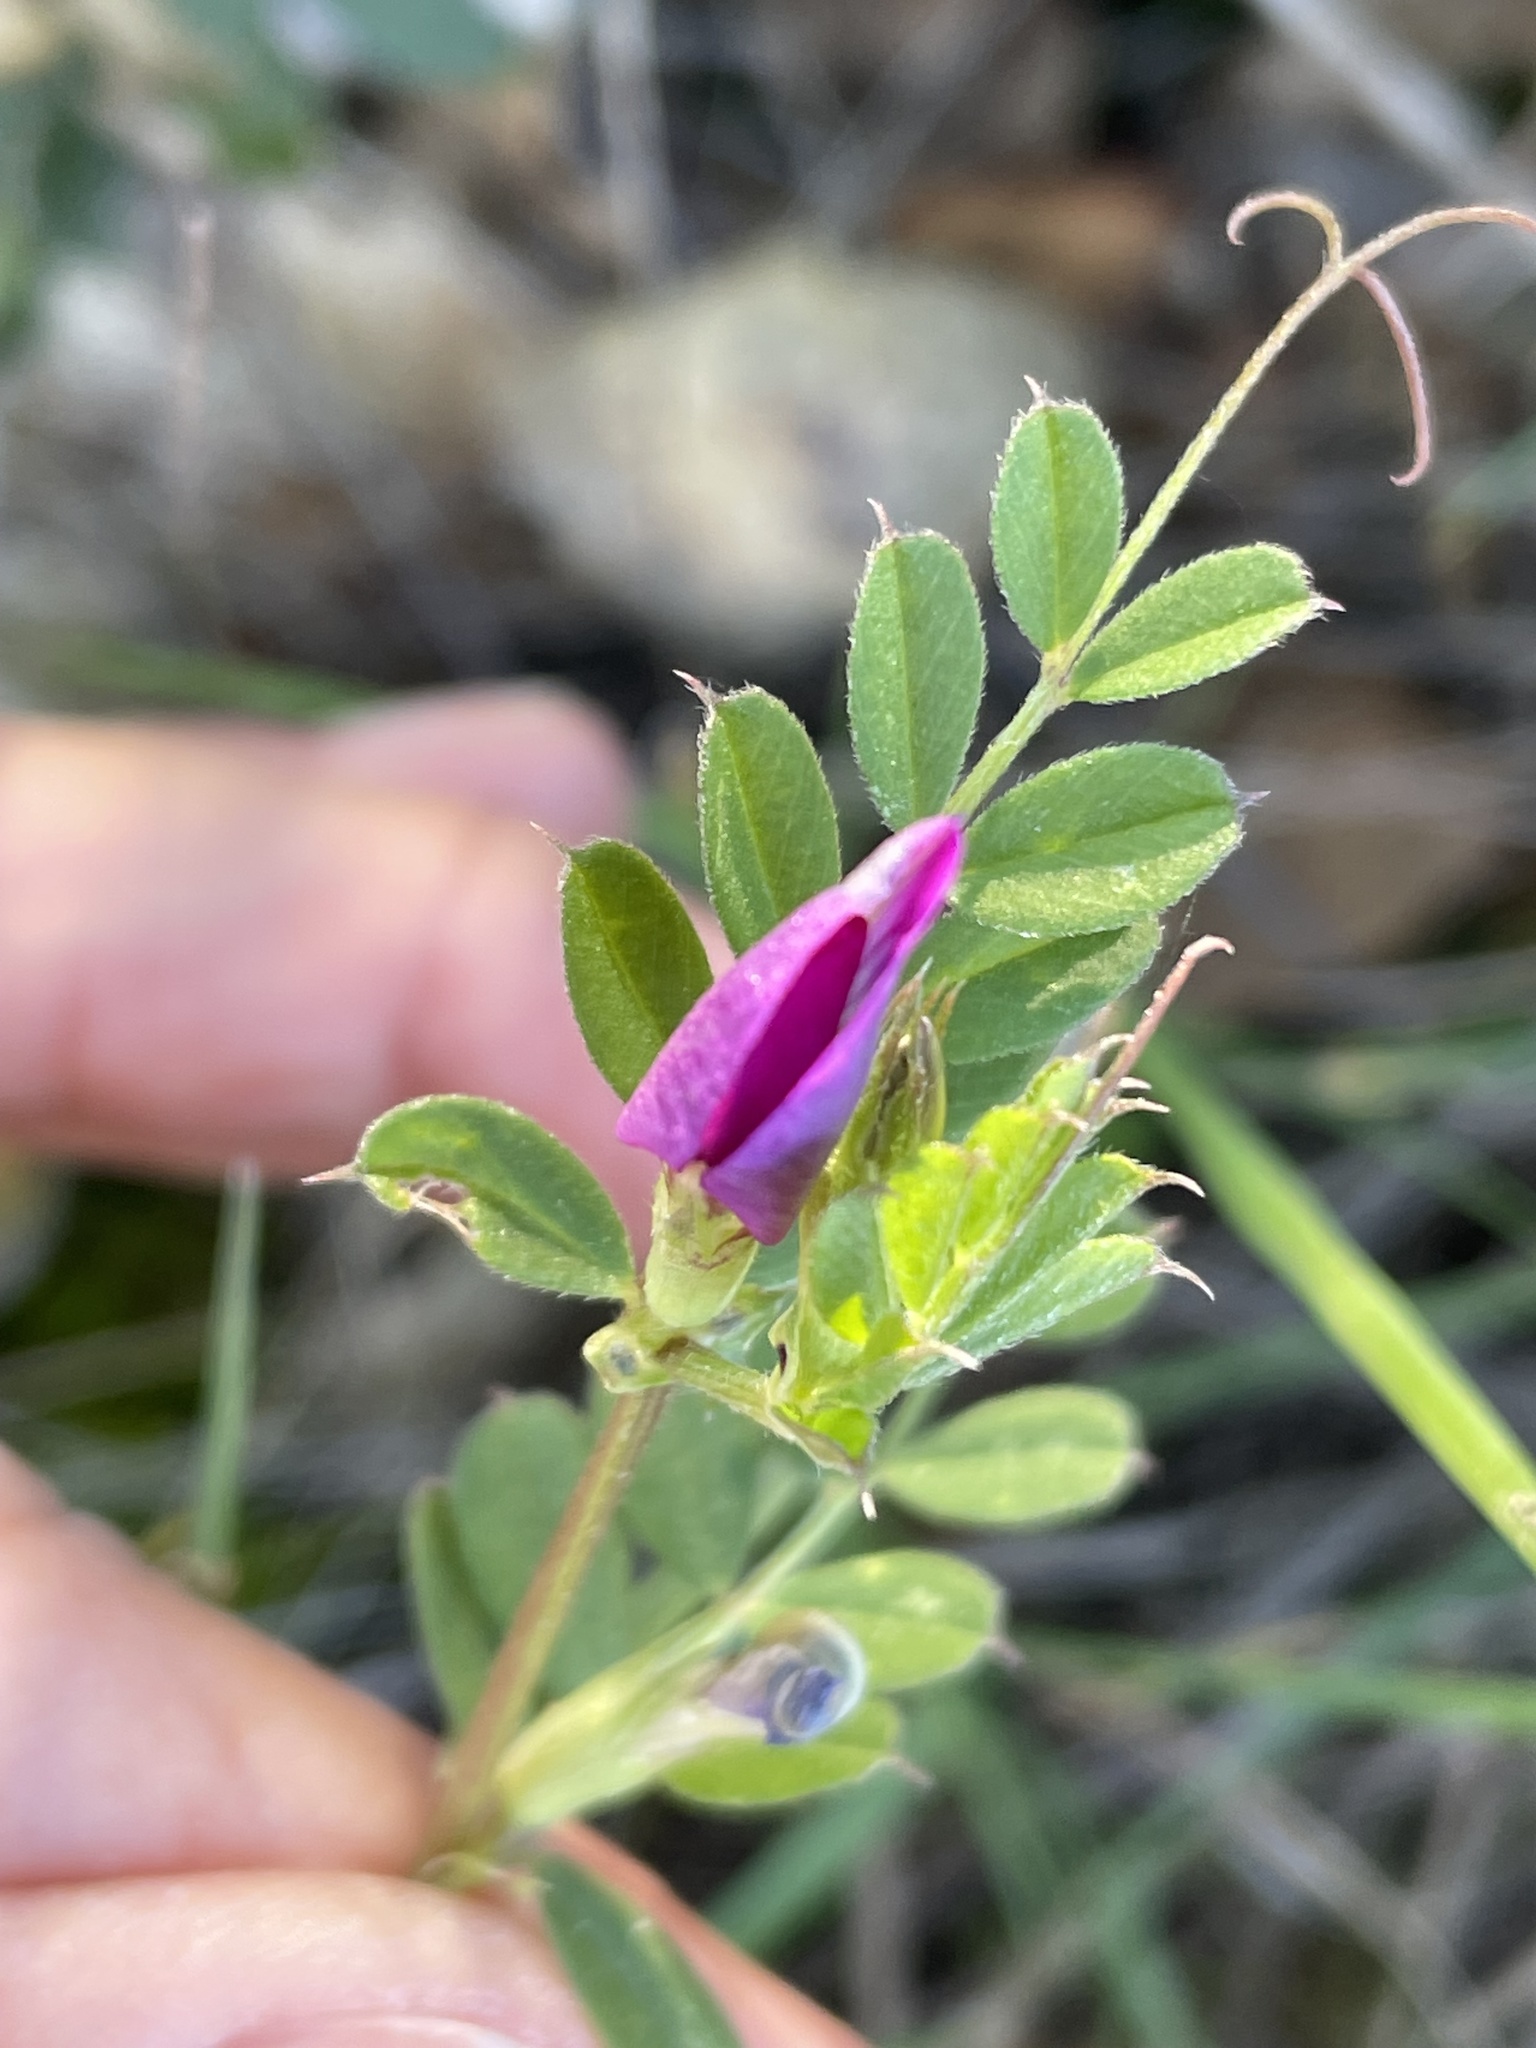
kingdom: Plantae
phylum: Tracheophyta
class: Magnoliopsida
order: Fabales
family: Fabaceae
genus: Vicia
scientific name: Vicia sativa
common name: Garden vetch
